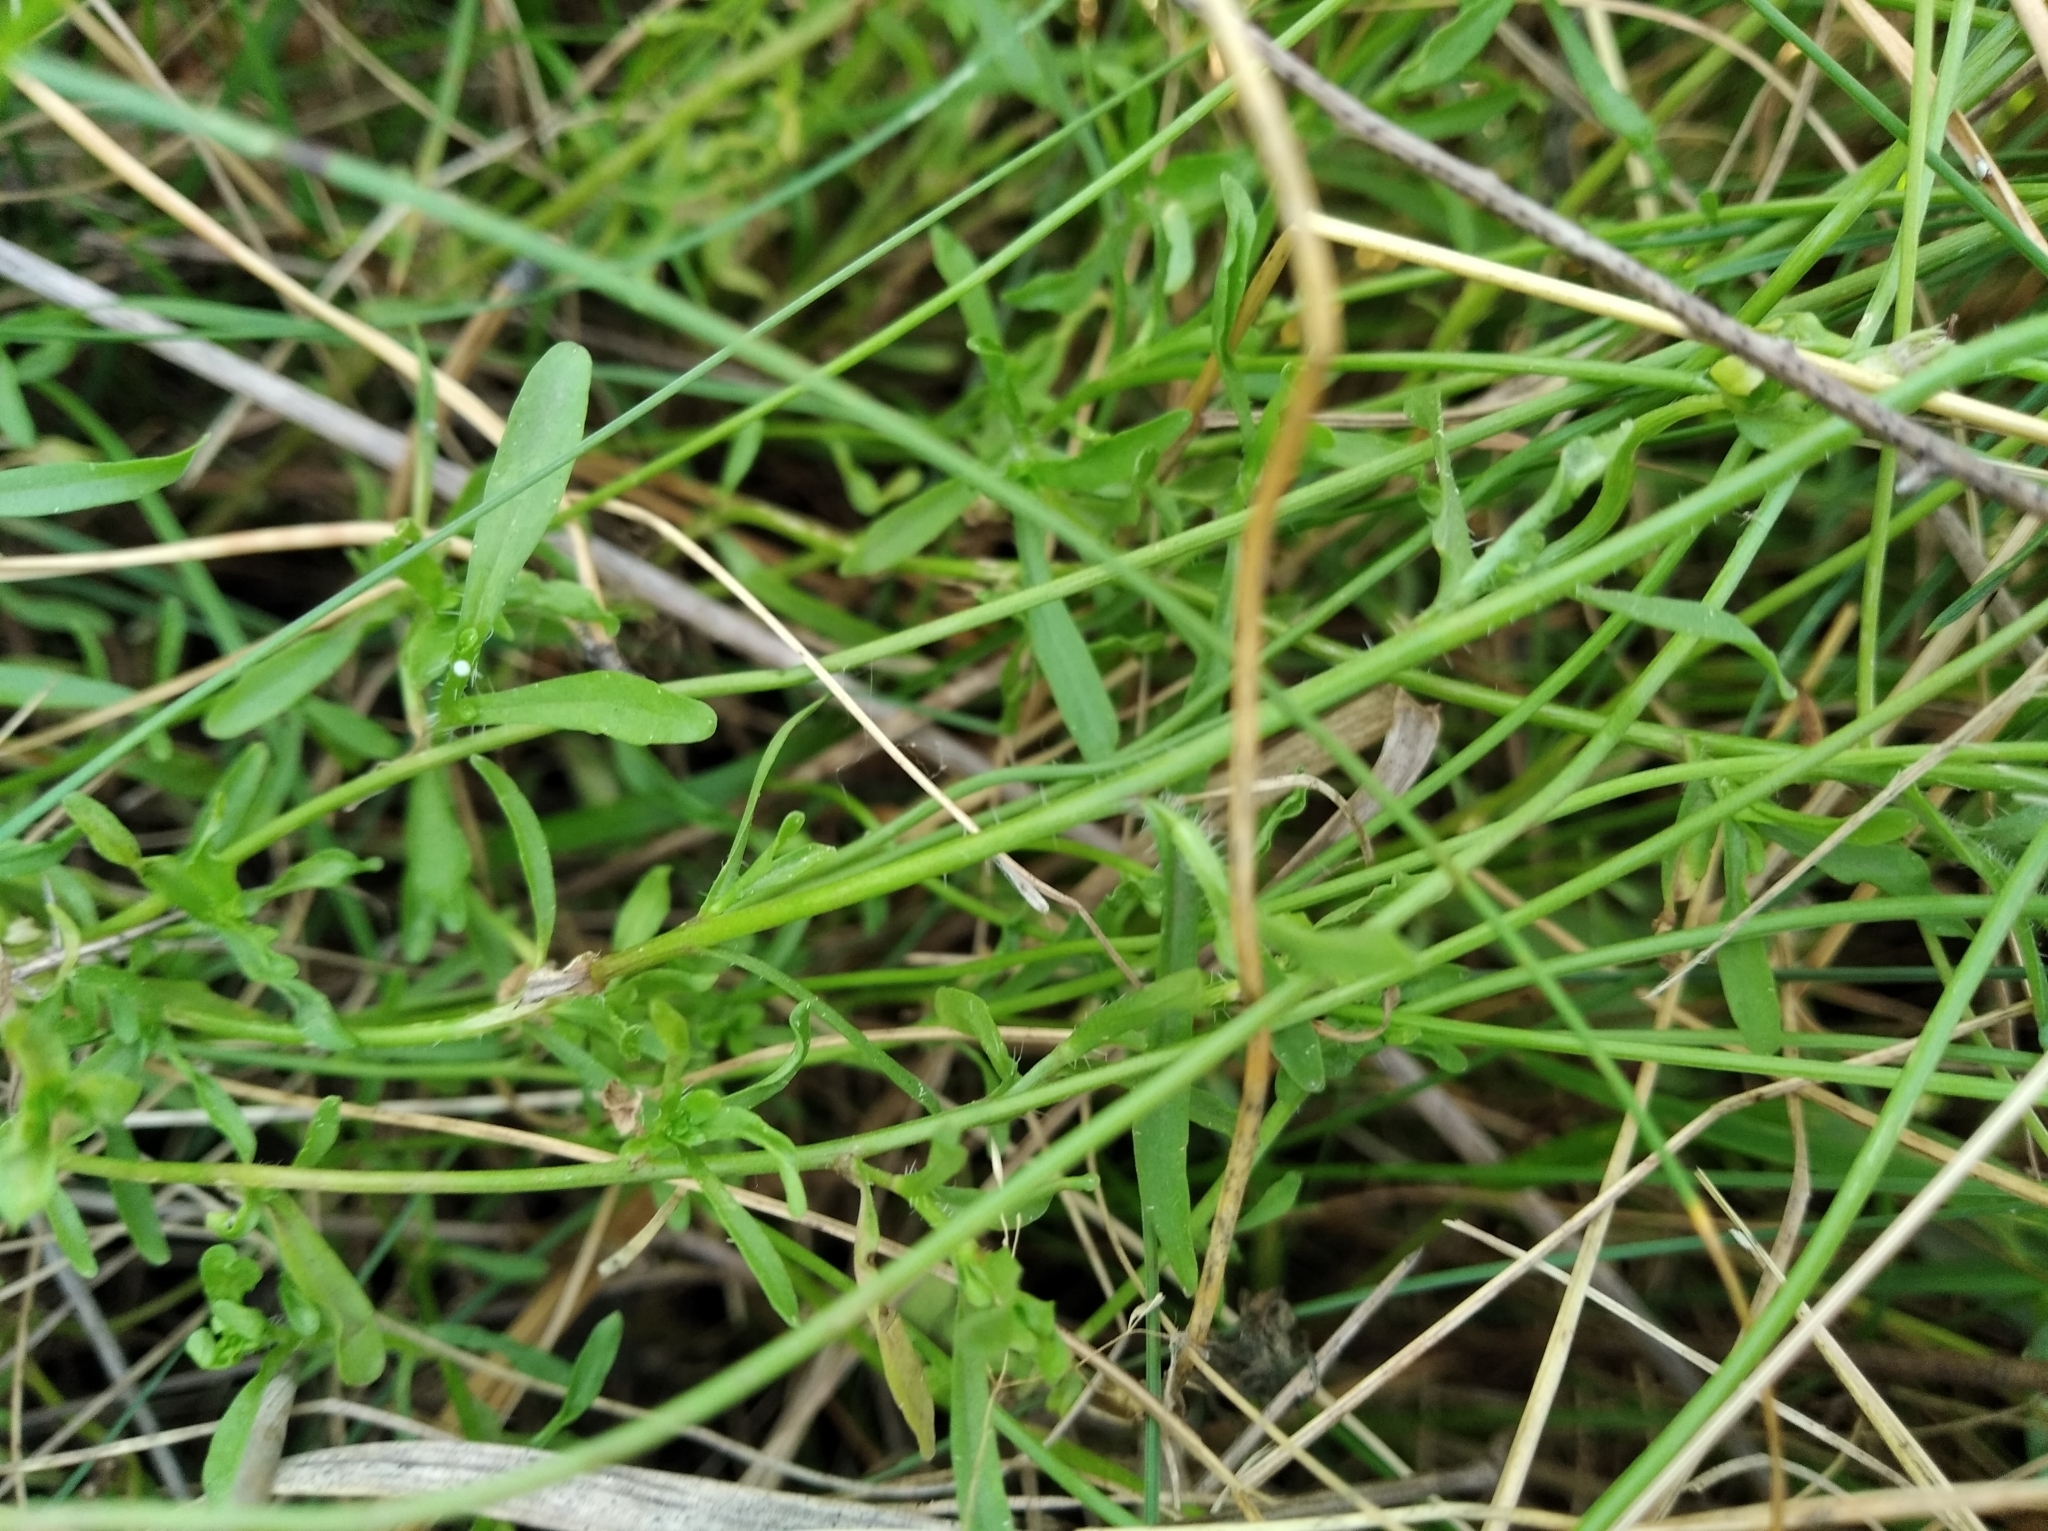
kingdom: Plantae
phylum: Tracheophyta
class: Magnoliopsida
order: Asterales
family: Campanulaceae
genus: Jasione
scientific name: Jasione montana
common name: Sheep's-bit
